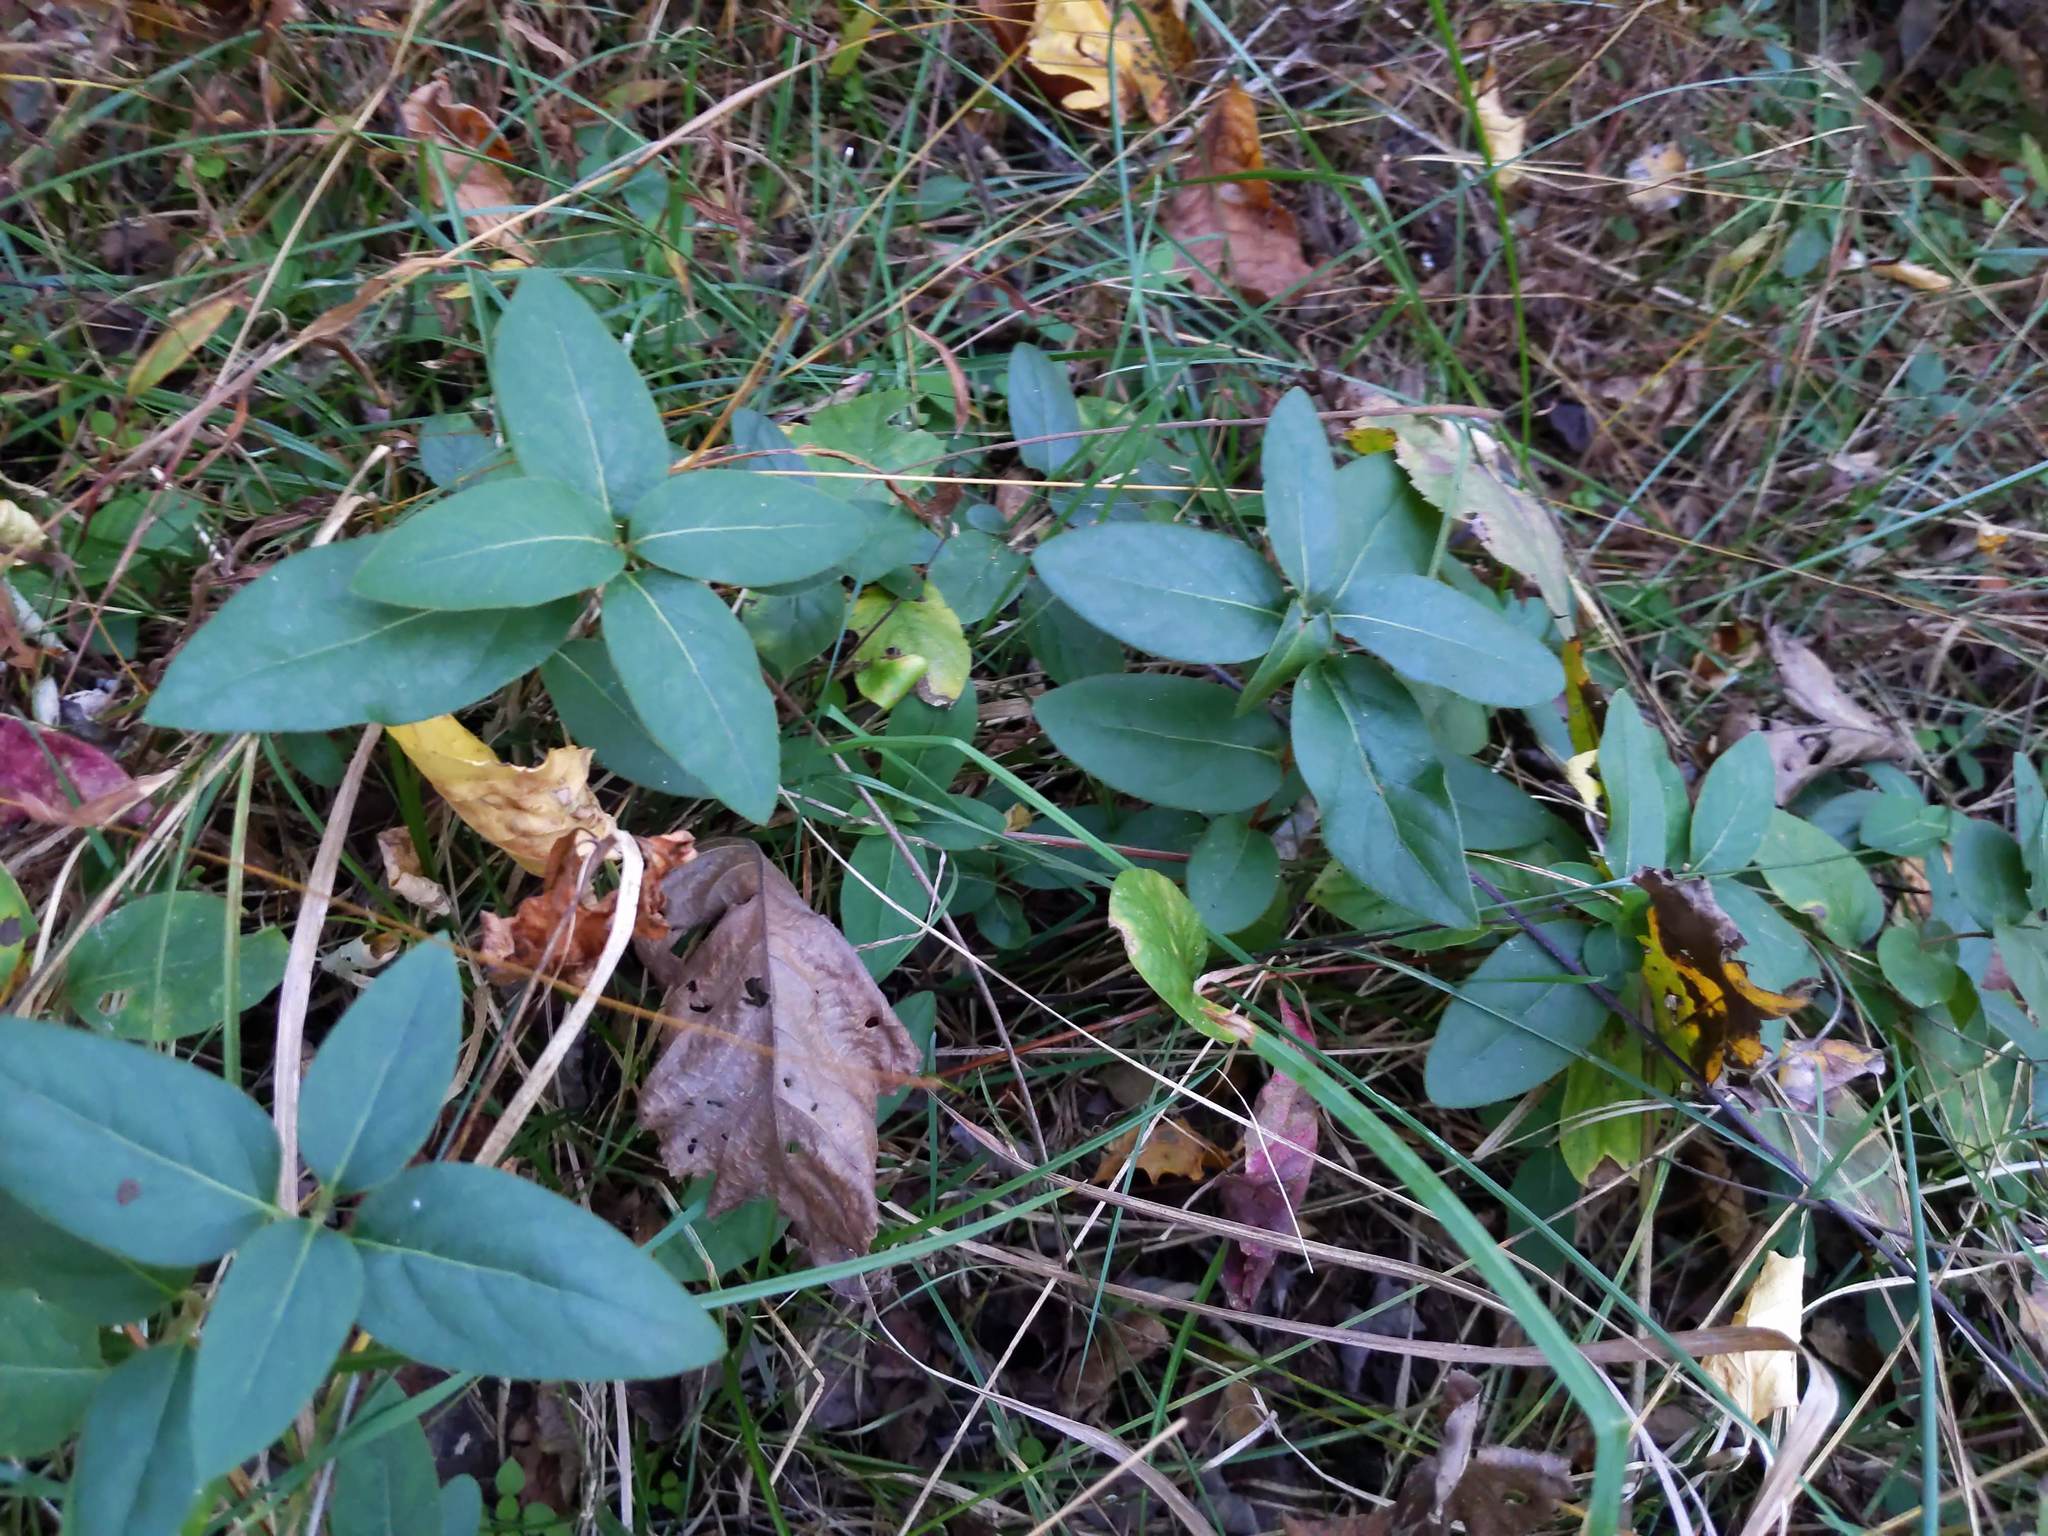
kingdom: Plantae
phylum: Tracheophyta
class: Magnoliopsida
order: Dipsacales
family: Caprifoliaceae
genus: Lonicera
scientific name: Lonicera japonica
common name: Japanese honeysuckle
